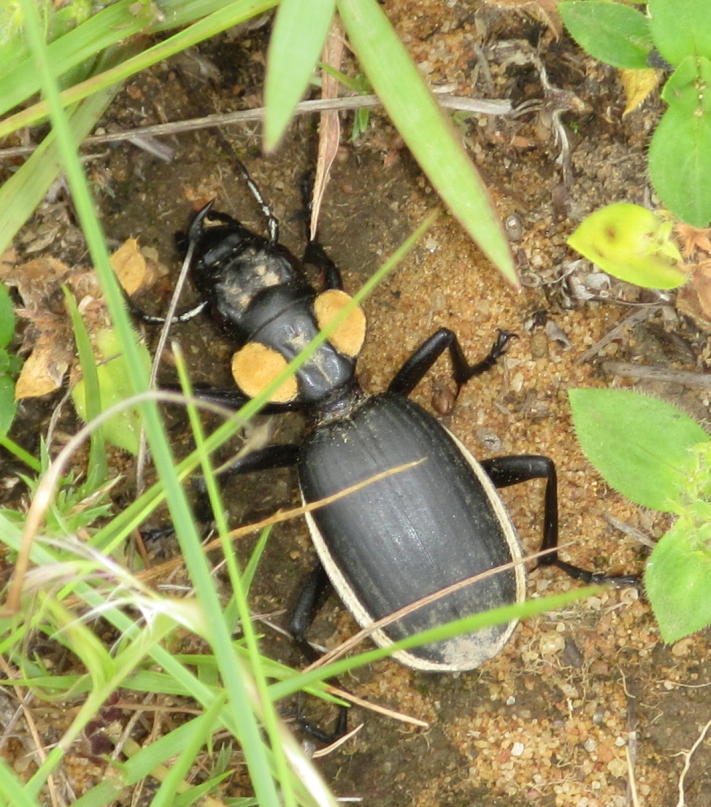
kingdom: Animalia
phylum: Arthropoda
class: Insecta
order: Coleoptera
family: Carabidae
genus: Anthia
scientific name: Anthia thoracica
